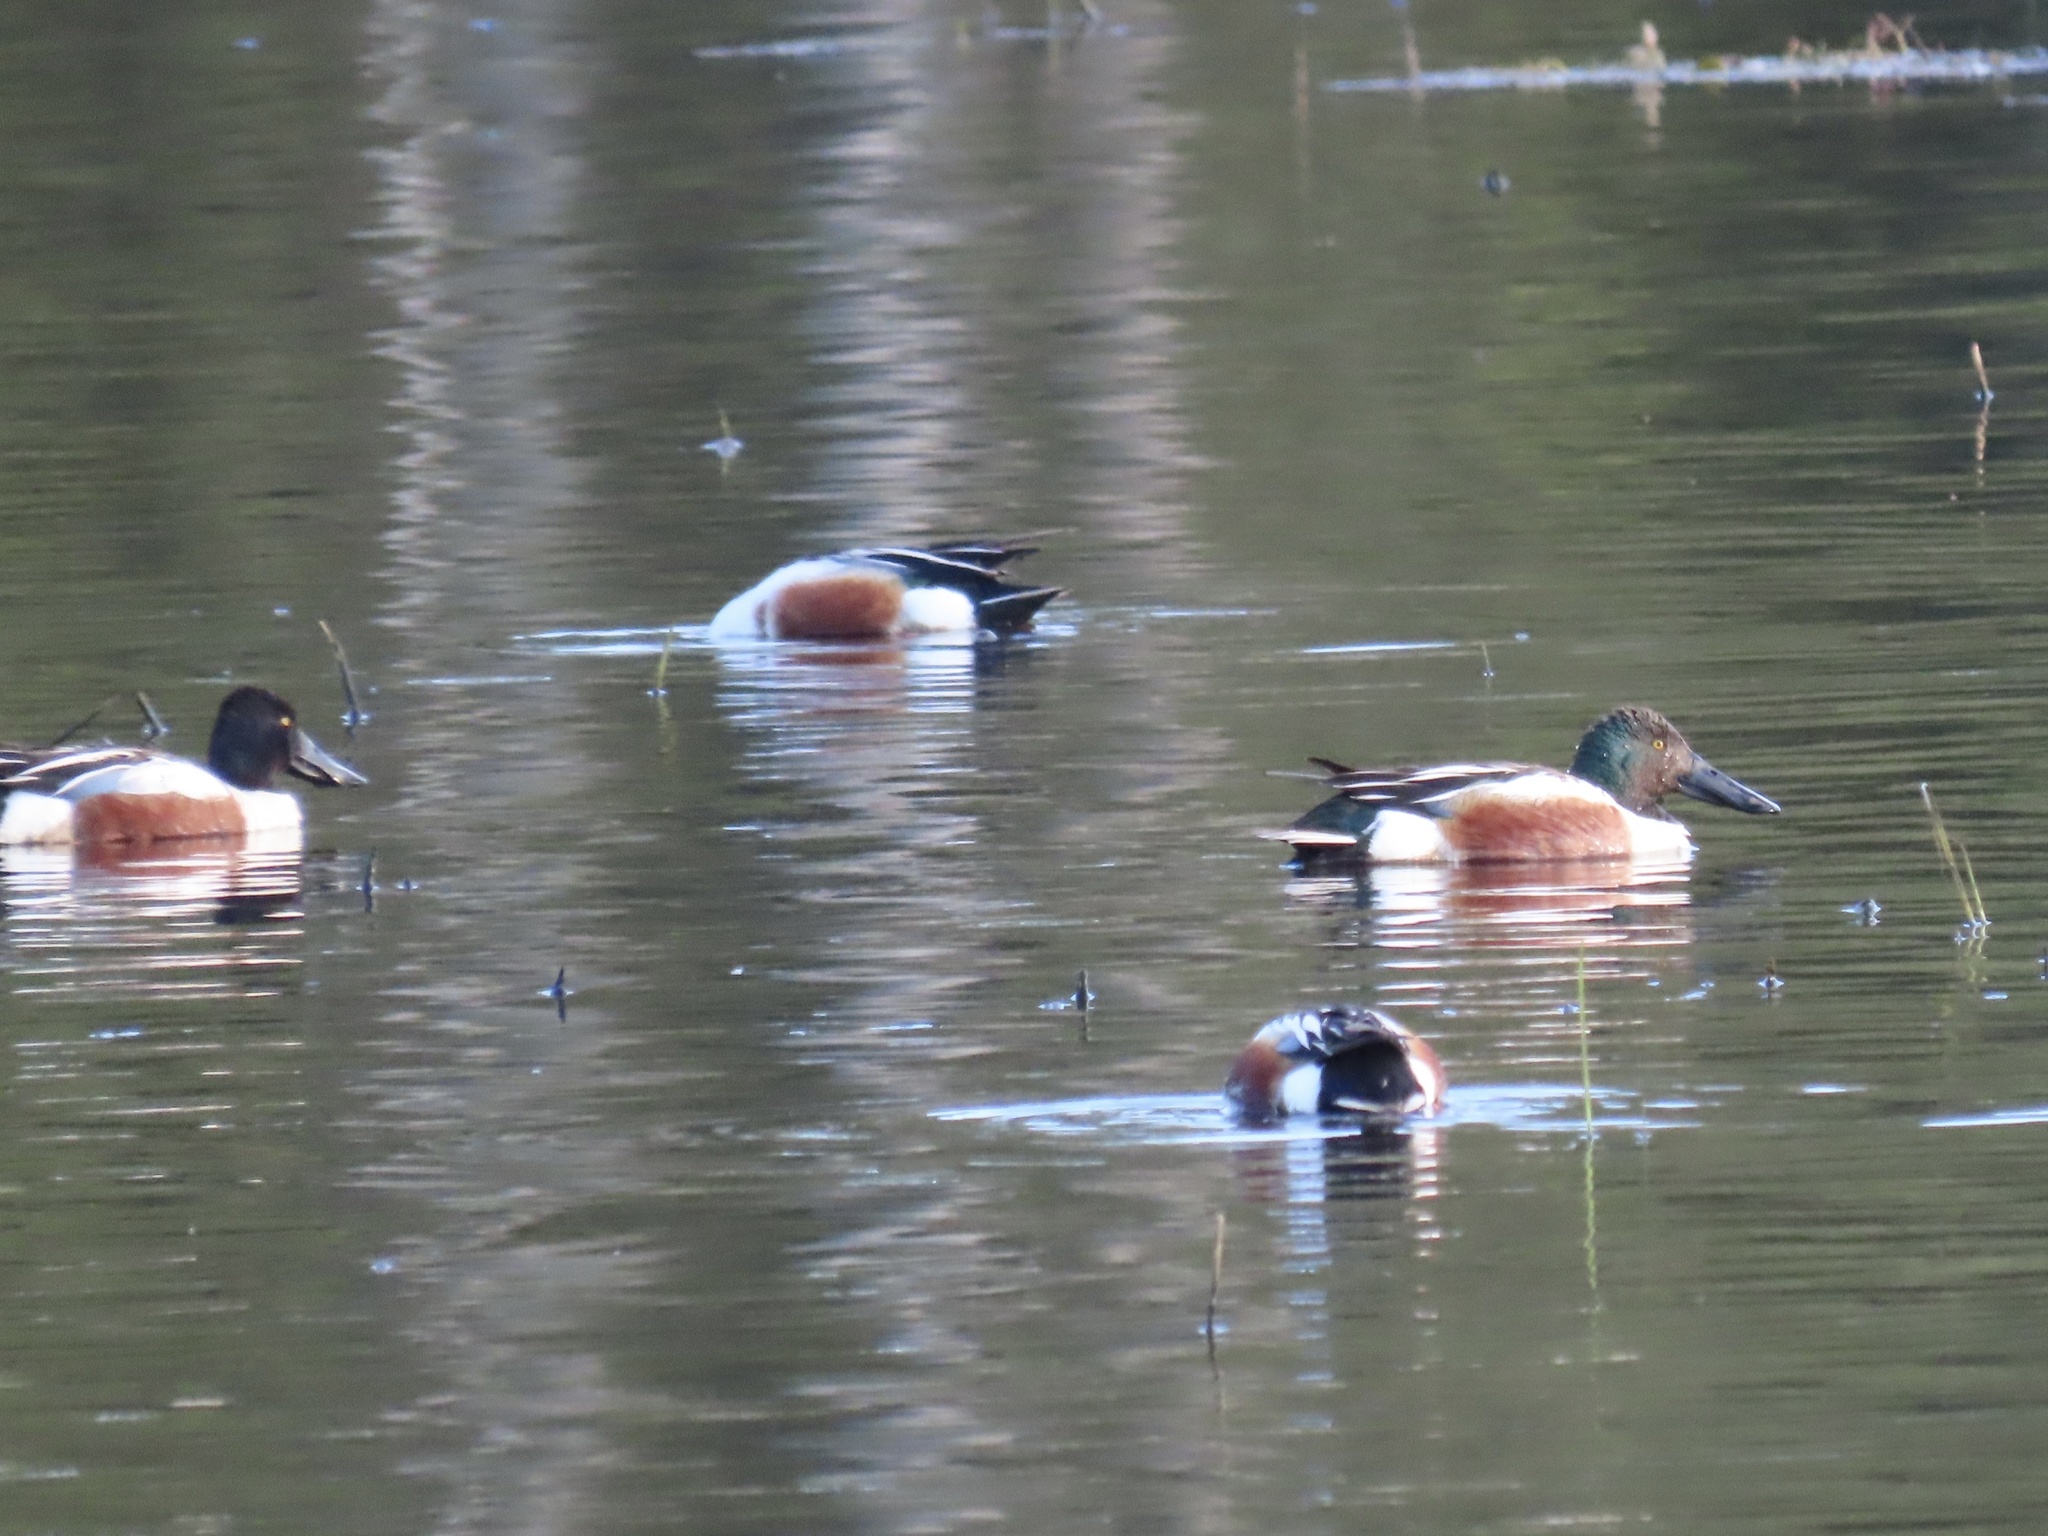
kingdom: Animalia
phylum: Chordata
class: Aves
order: Anseriformes
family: Anatidae
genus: Spatula
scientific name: Spatula clypeata
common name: Northern shoveler
